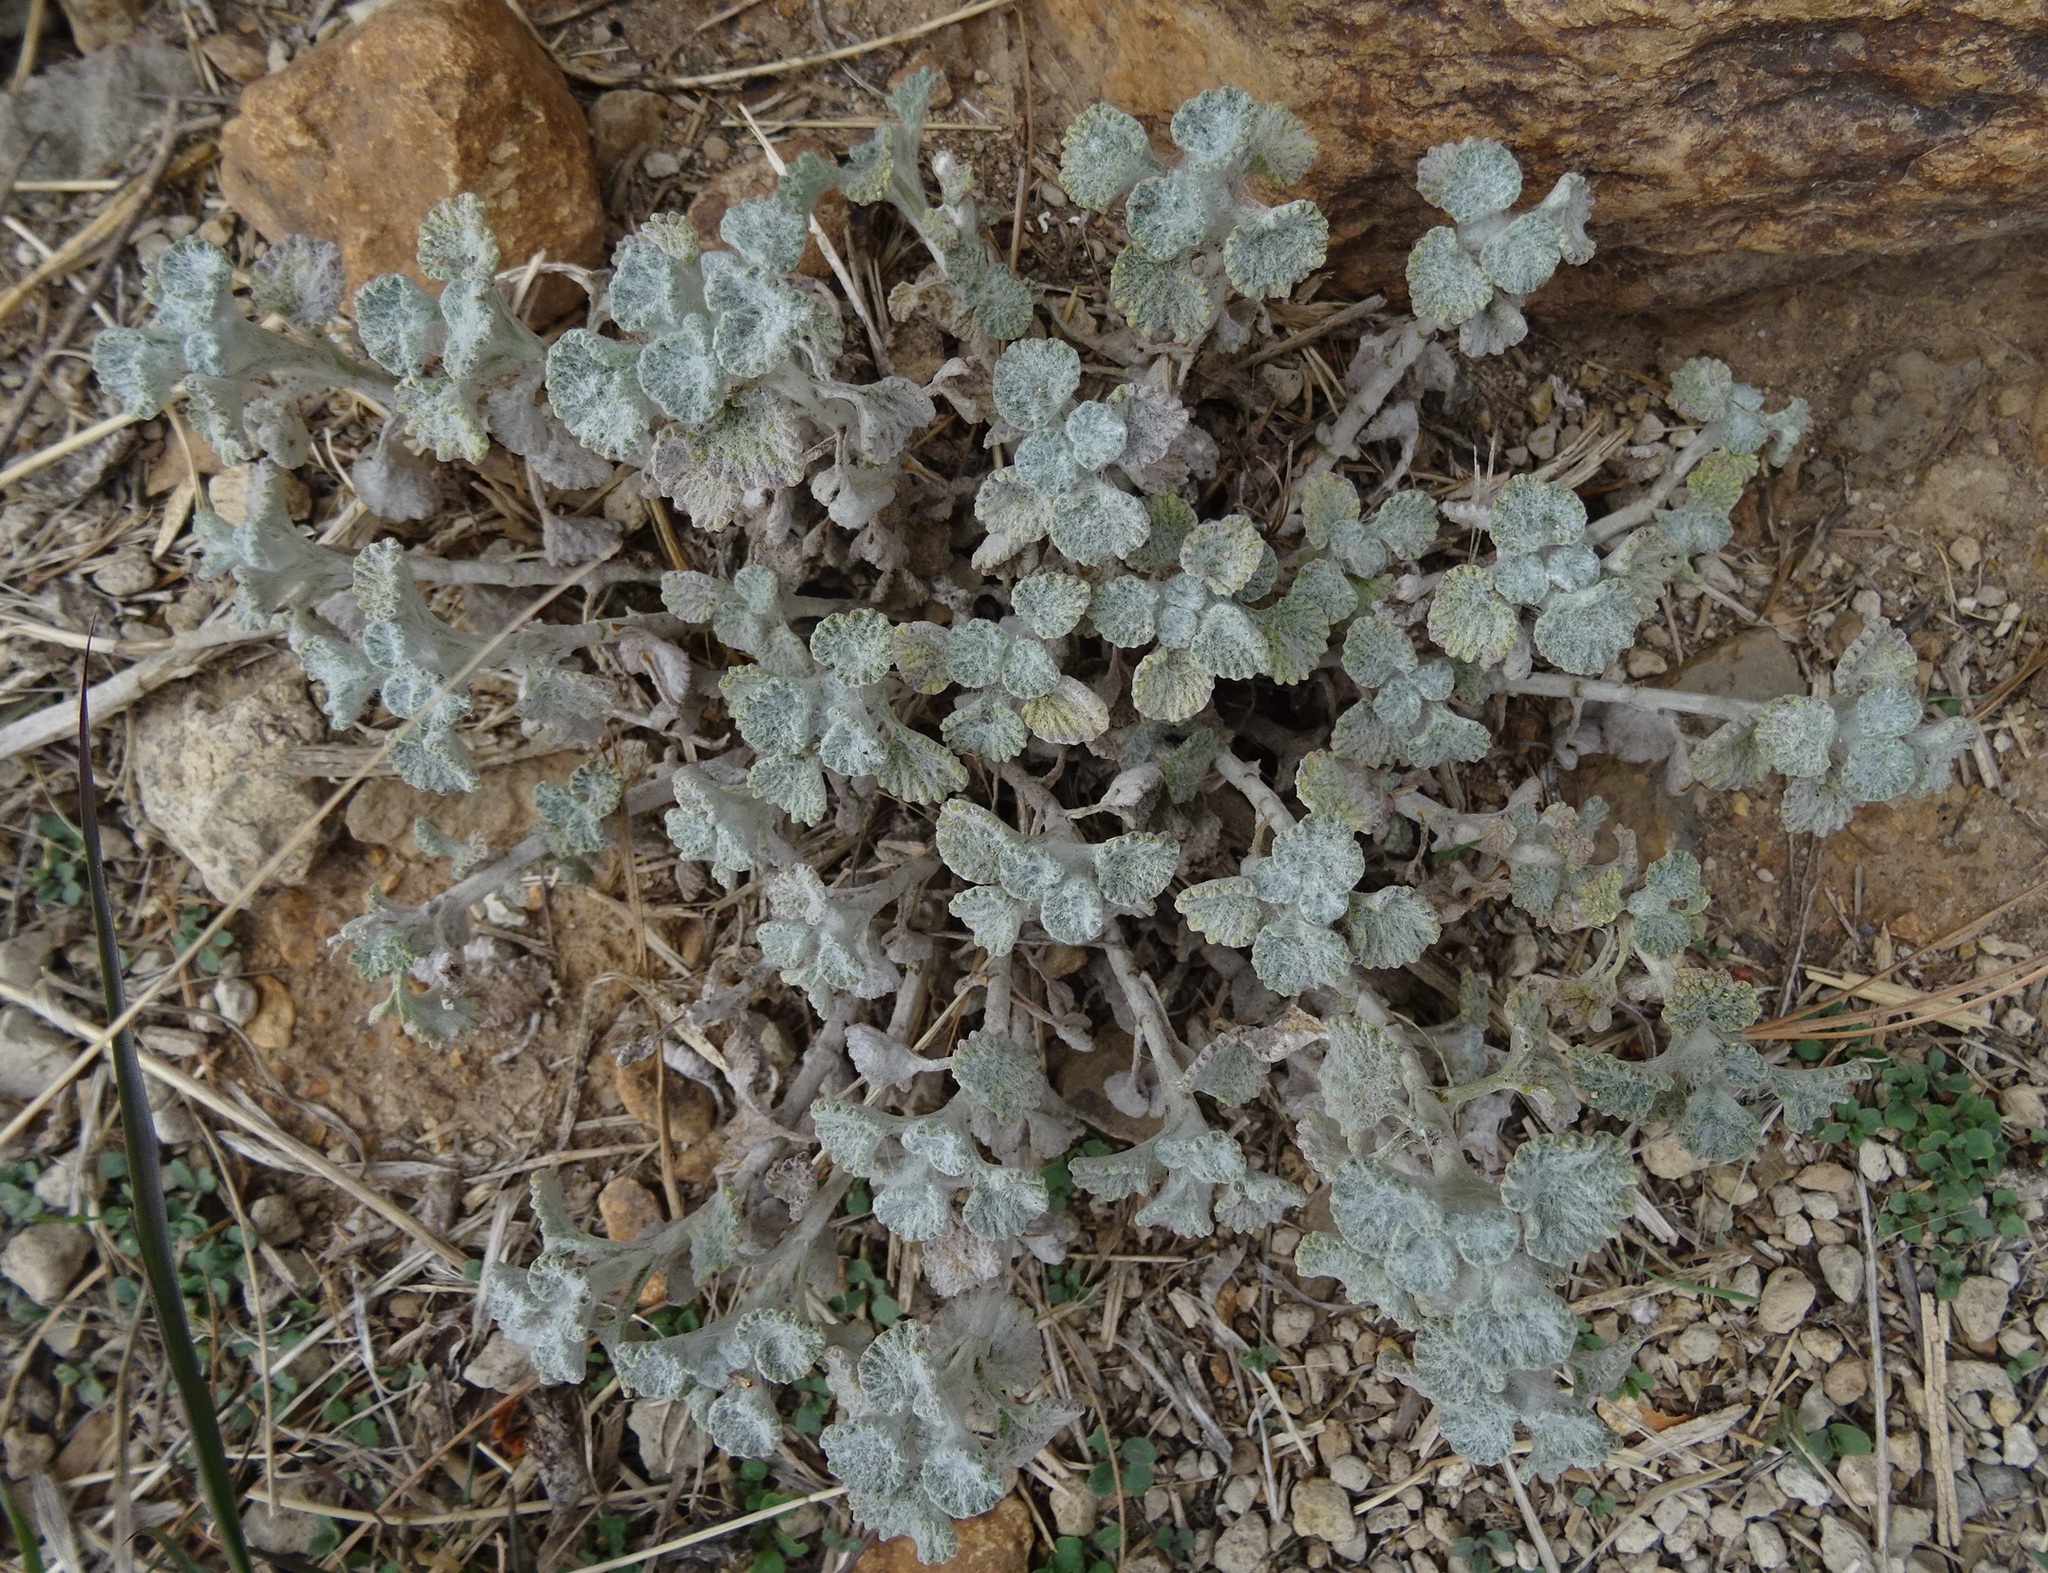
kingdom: Plantae
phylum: Tracheophyta
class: Magnoliopsida
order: Lamiales
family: Lamiaceae
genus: Marrubium
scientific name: Marrubium vulgare
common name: Horehound
